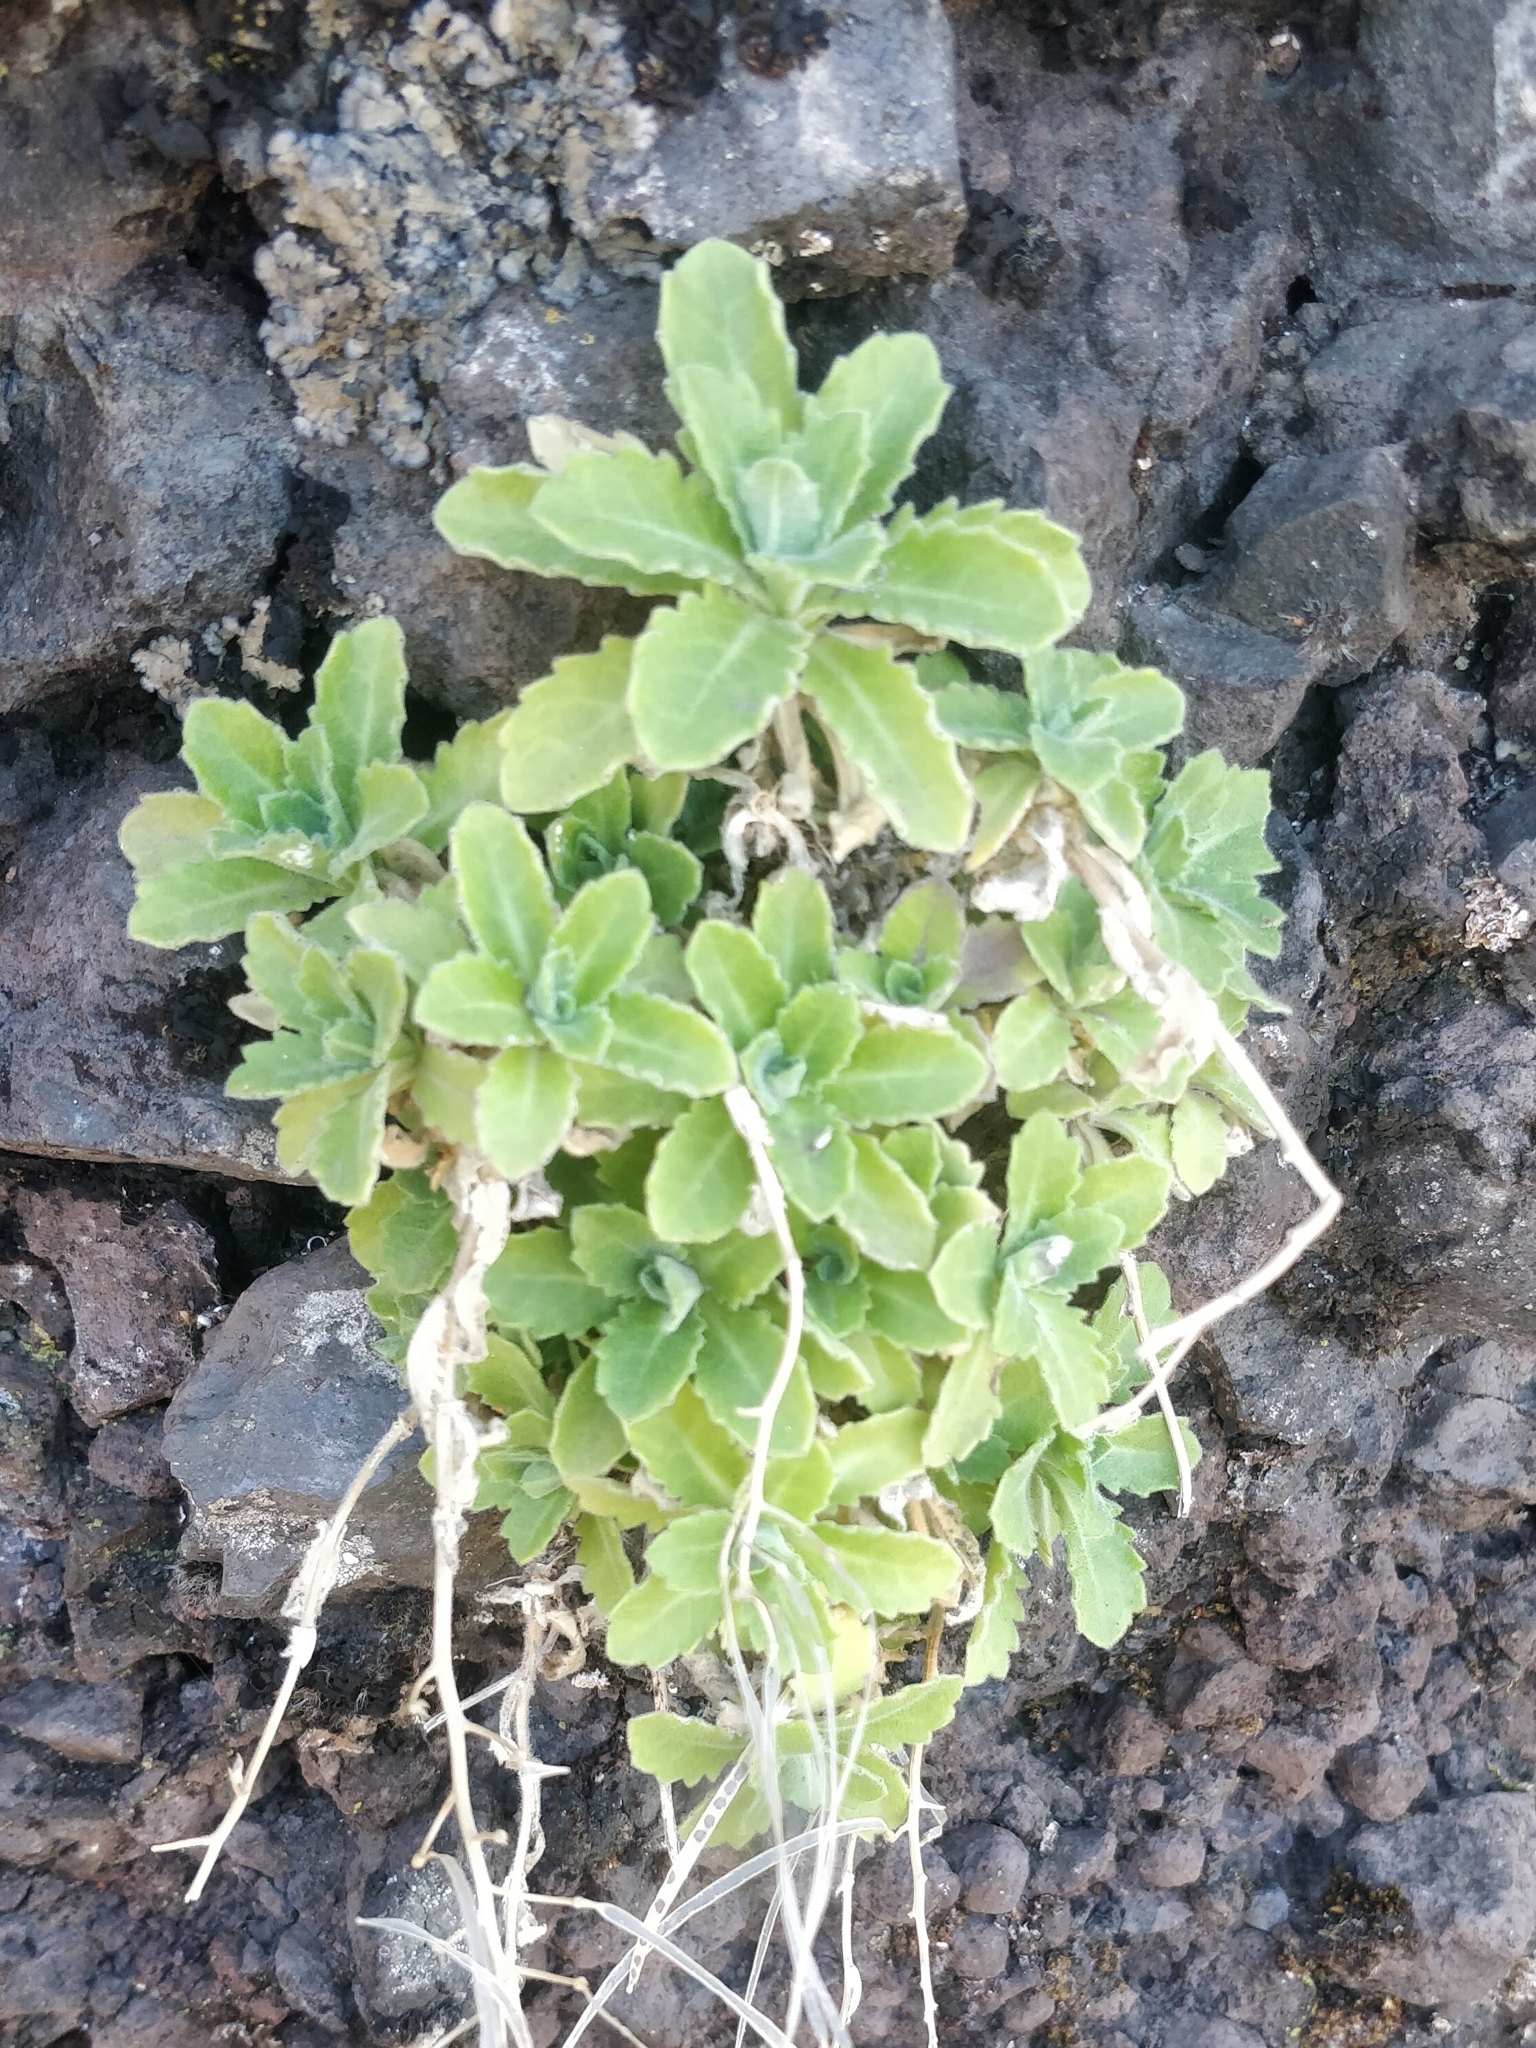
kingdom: Plantae
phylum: Tracheophyta
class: Magnoliopsida
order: Brassicales
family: Brassicaceae
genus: Arabis
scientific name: Arabis caucasica
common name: Gray rockcress
